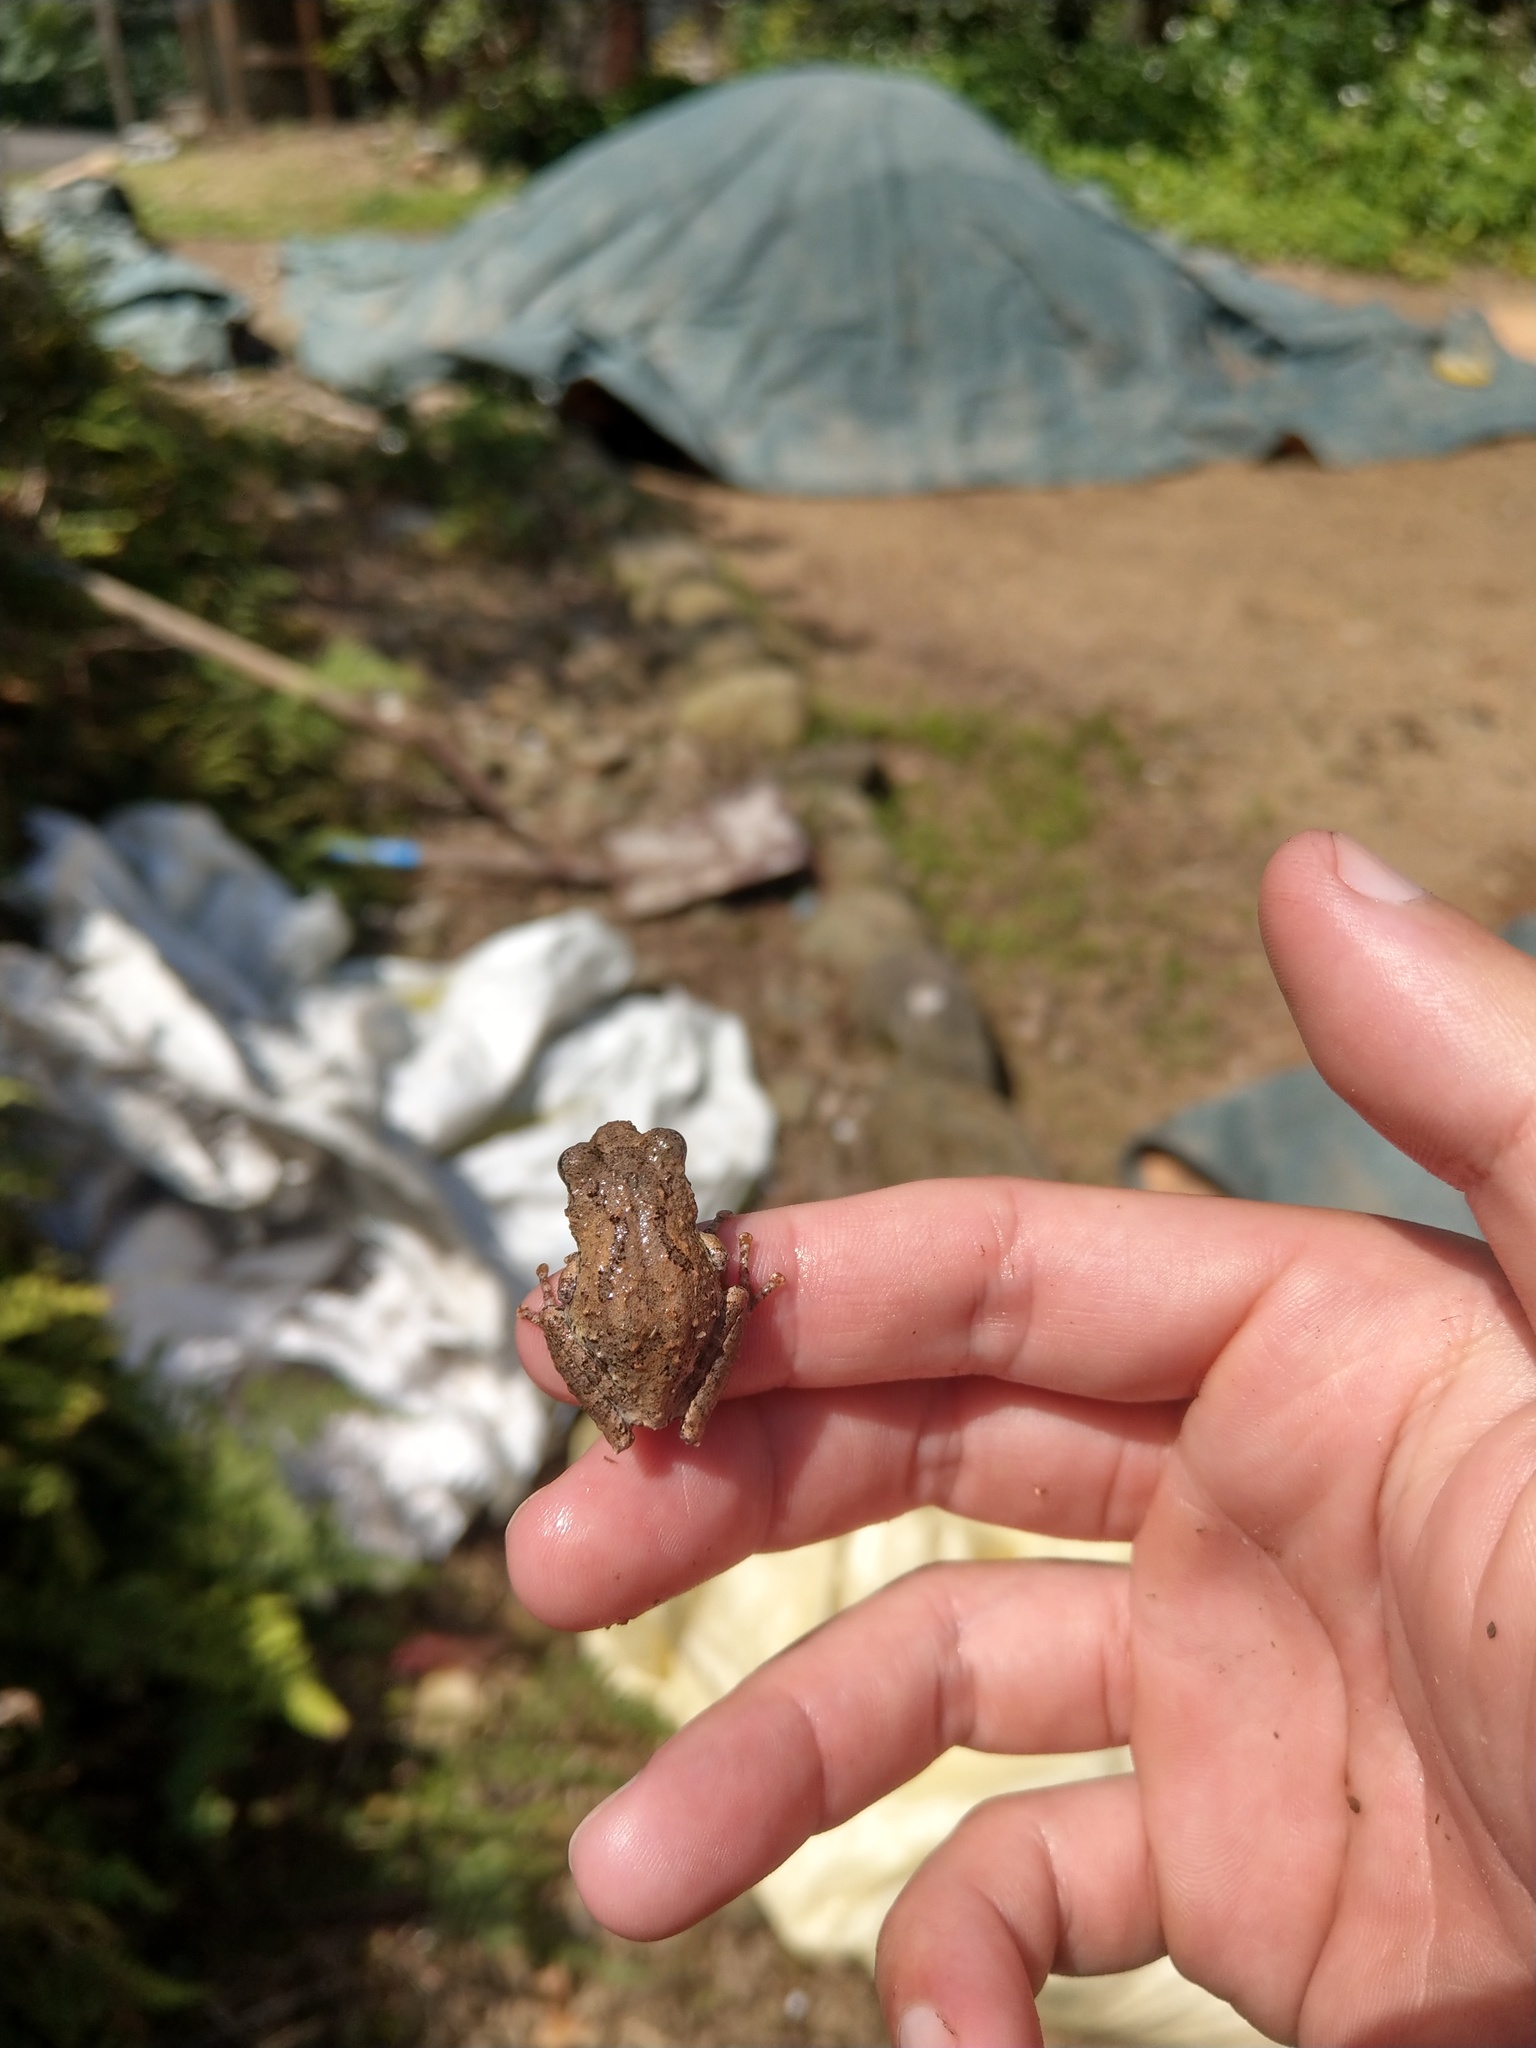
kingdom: Animalia
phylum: Chordata
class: Amphibia
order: Anura
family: Rhacophoridae
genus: Kurixalus
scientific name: Kurixalus idiootocus
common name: Temple treefrog
